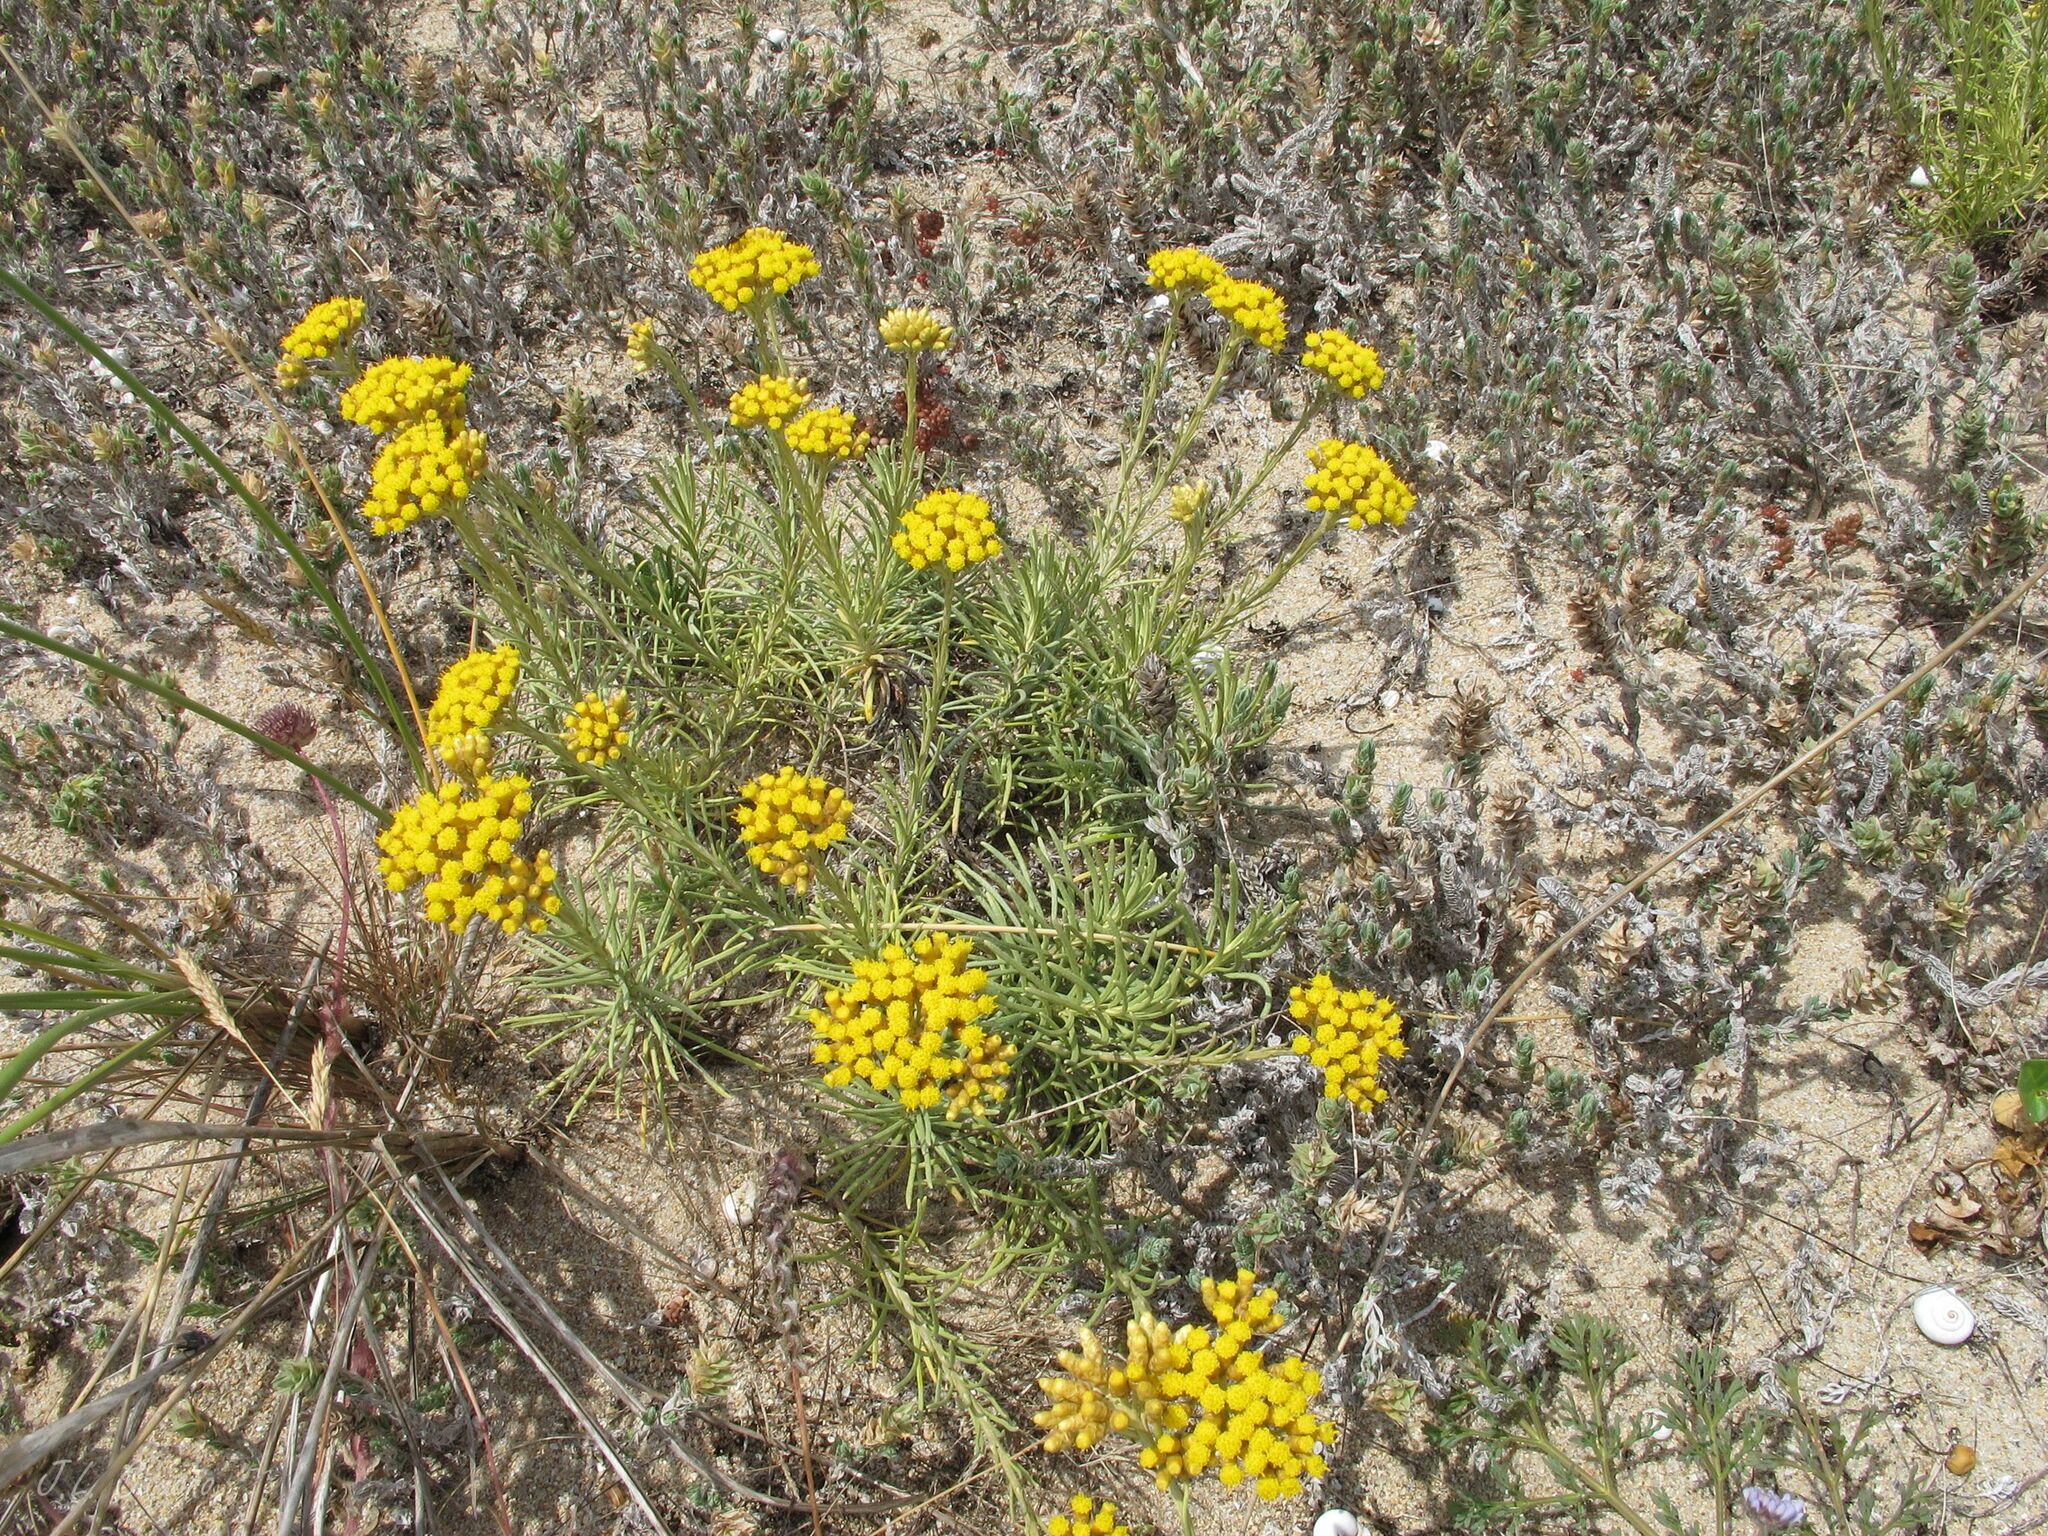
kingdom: Plantae
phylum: Tracheophyta
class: Magnoliopsida
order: Asterales
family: Asteraceae
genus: Helichrysum
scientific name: Helichrysum serotinum
